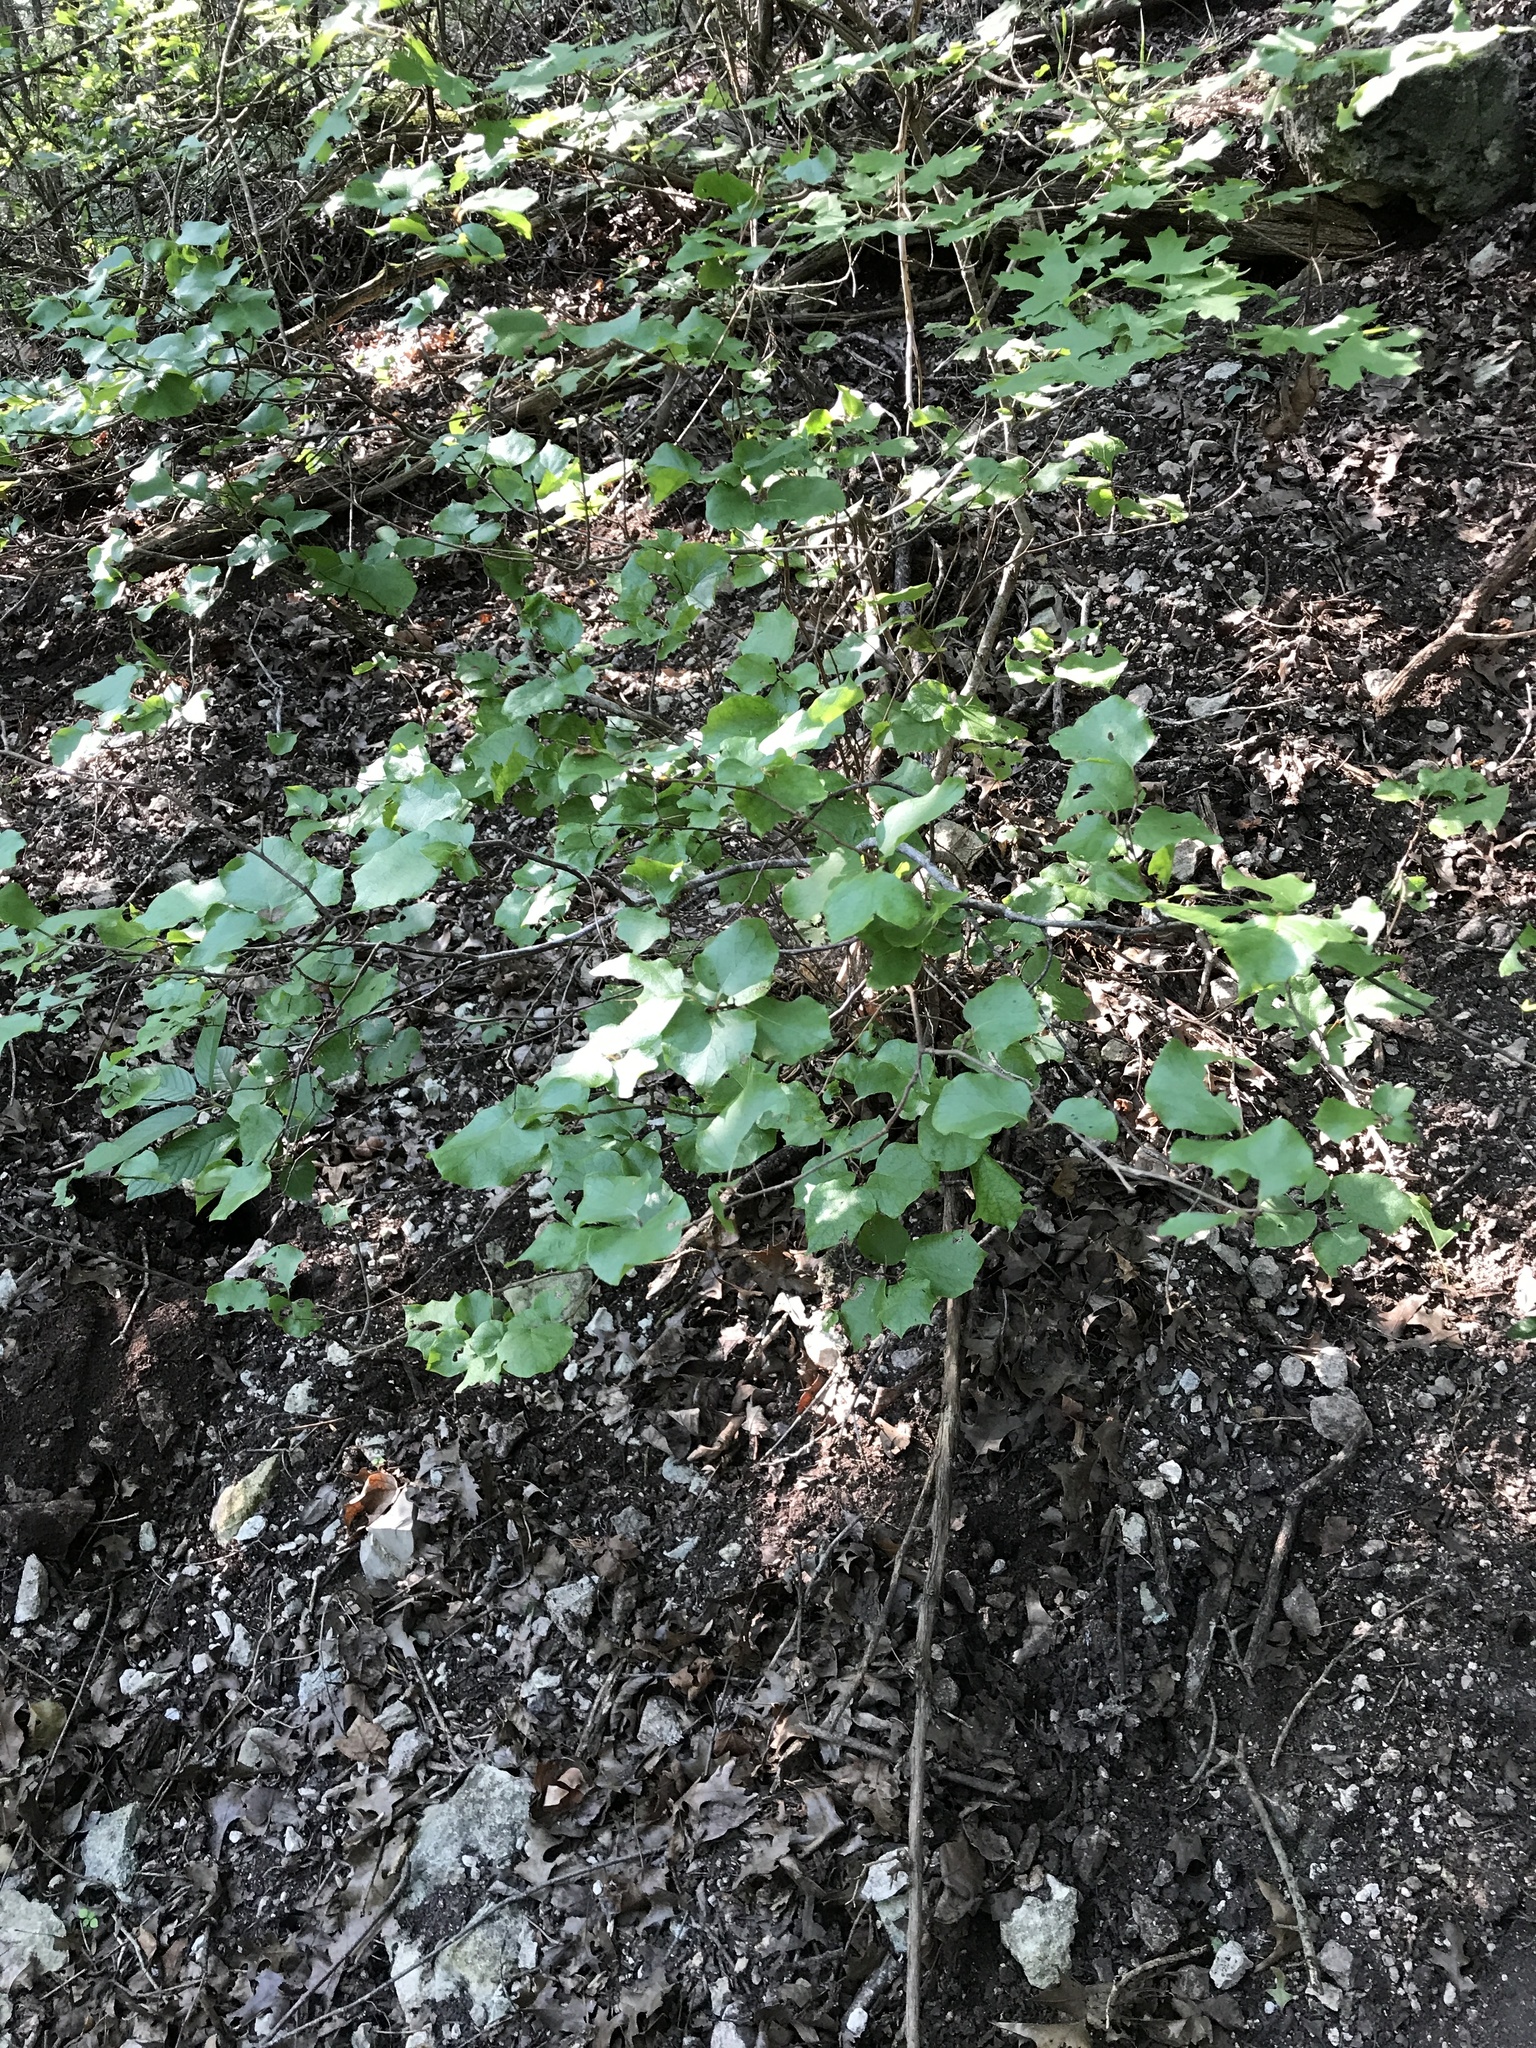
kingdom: Plantae
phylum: Tracheophyta
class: Magnoliopsida
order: Ericales
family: Styracaceae
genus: Styrax
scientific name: Styrax platanifolius
